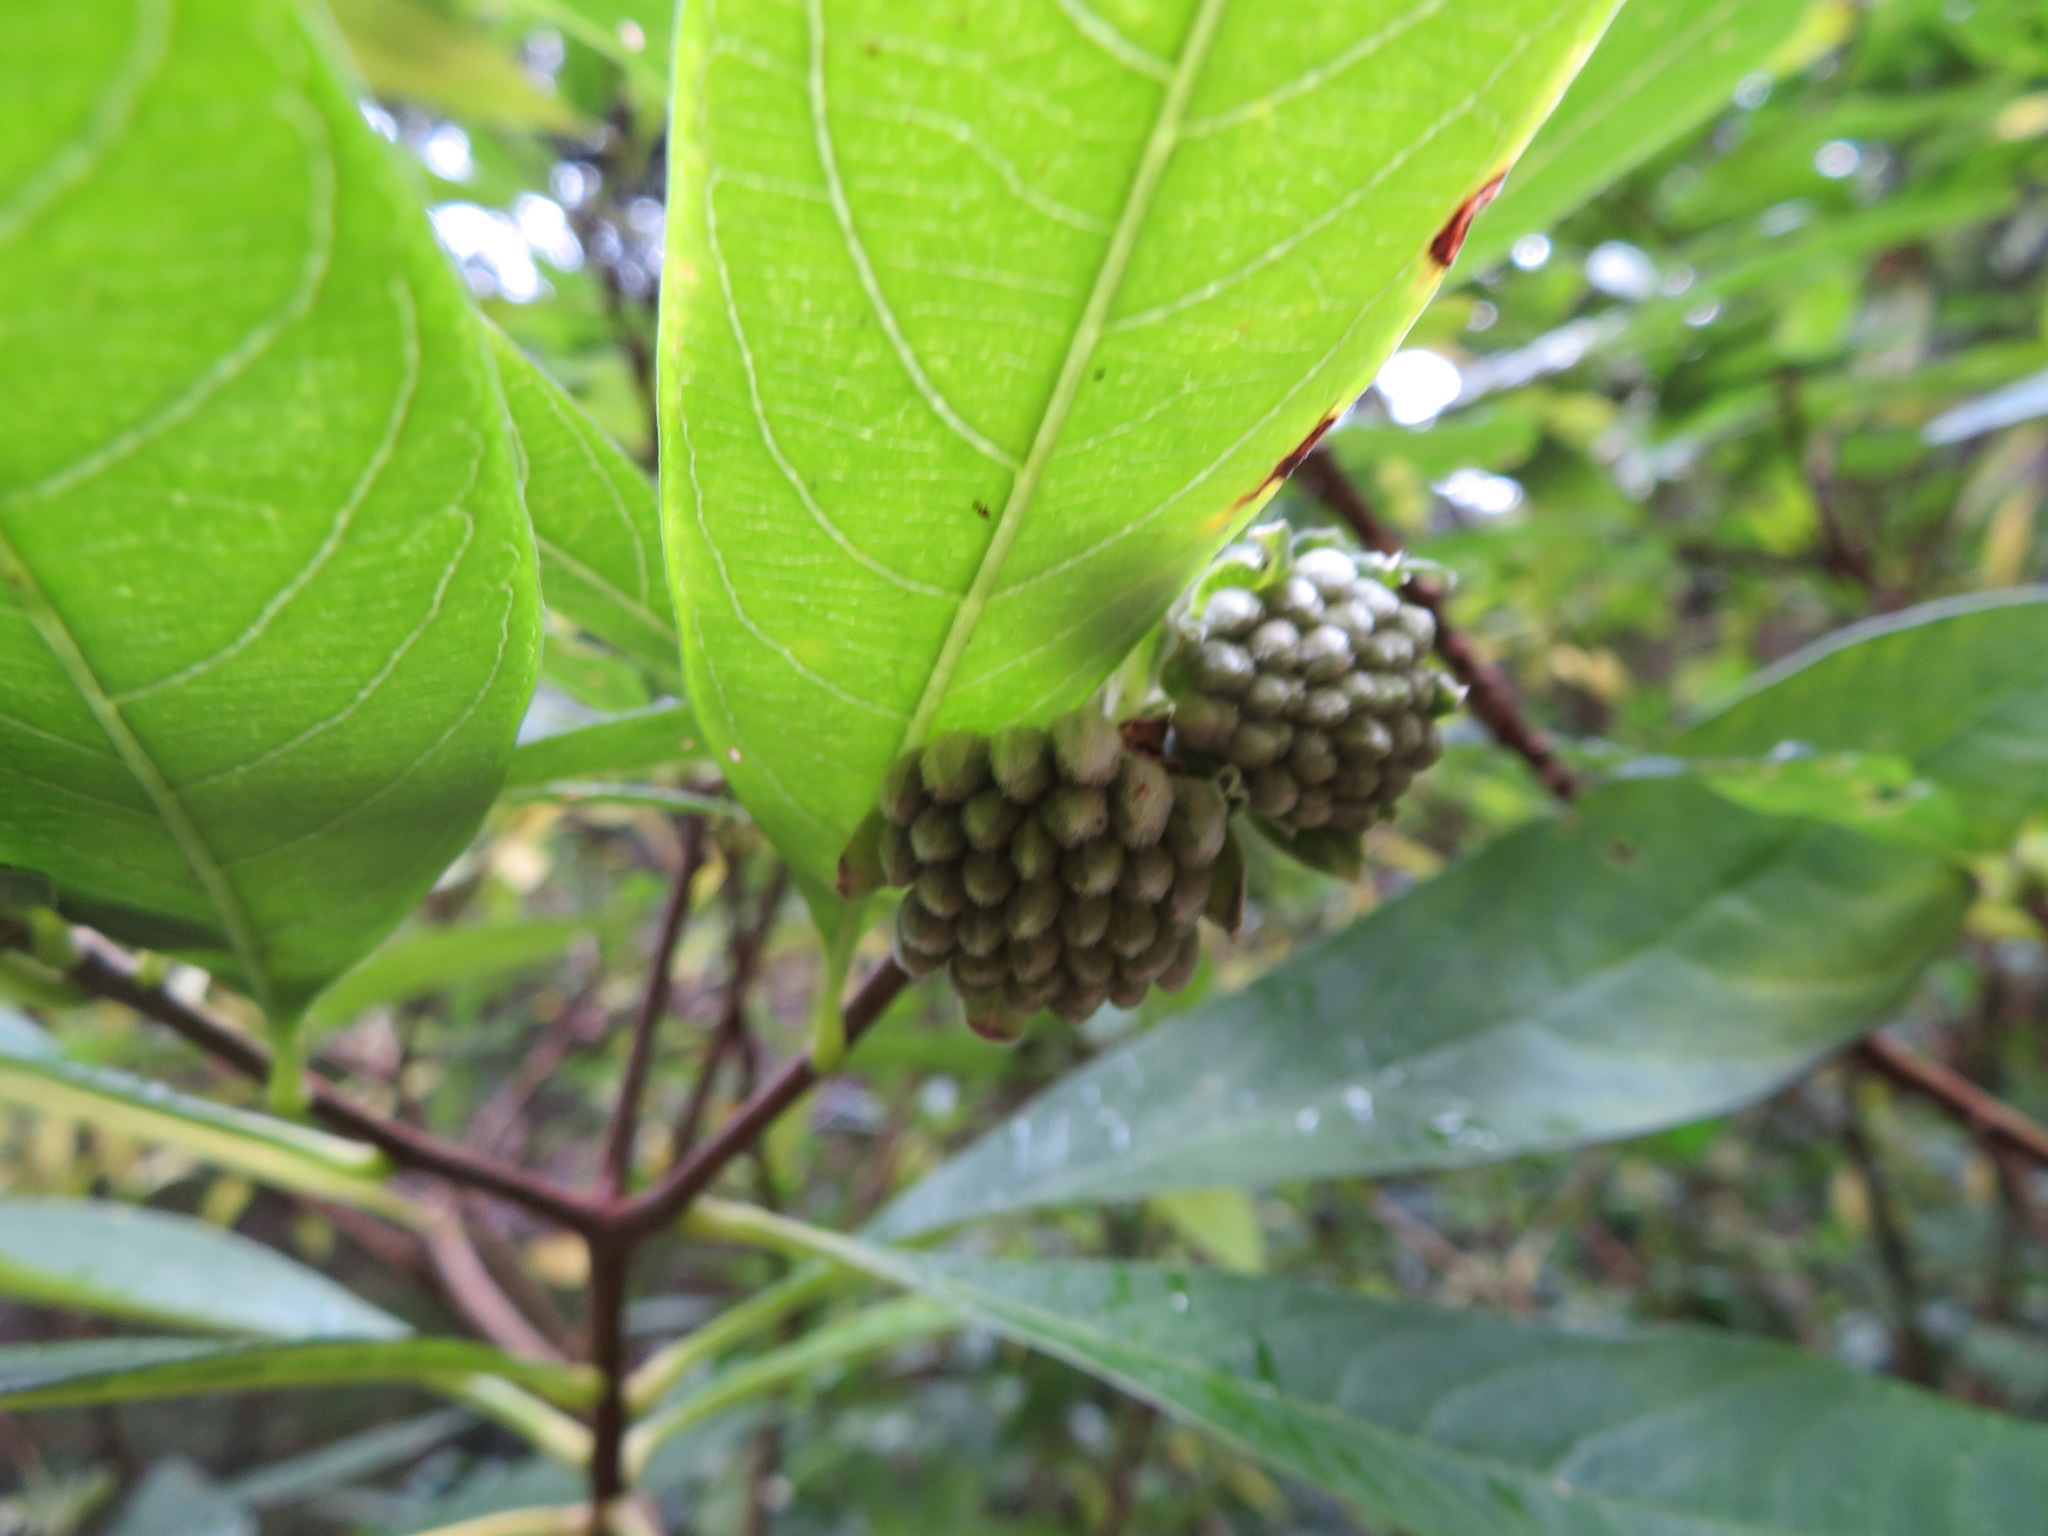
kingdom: Plantae
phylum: Tracheophyta
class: Magnoliopsida
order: Malvales
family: Thymelaeaceae
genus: Edgeworthia
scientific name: Edgeworthia chrysantha
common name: Oriental paperbush
